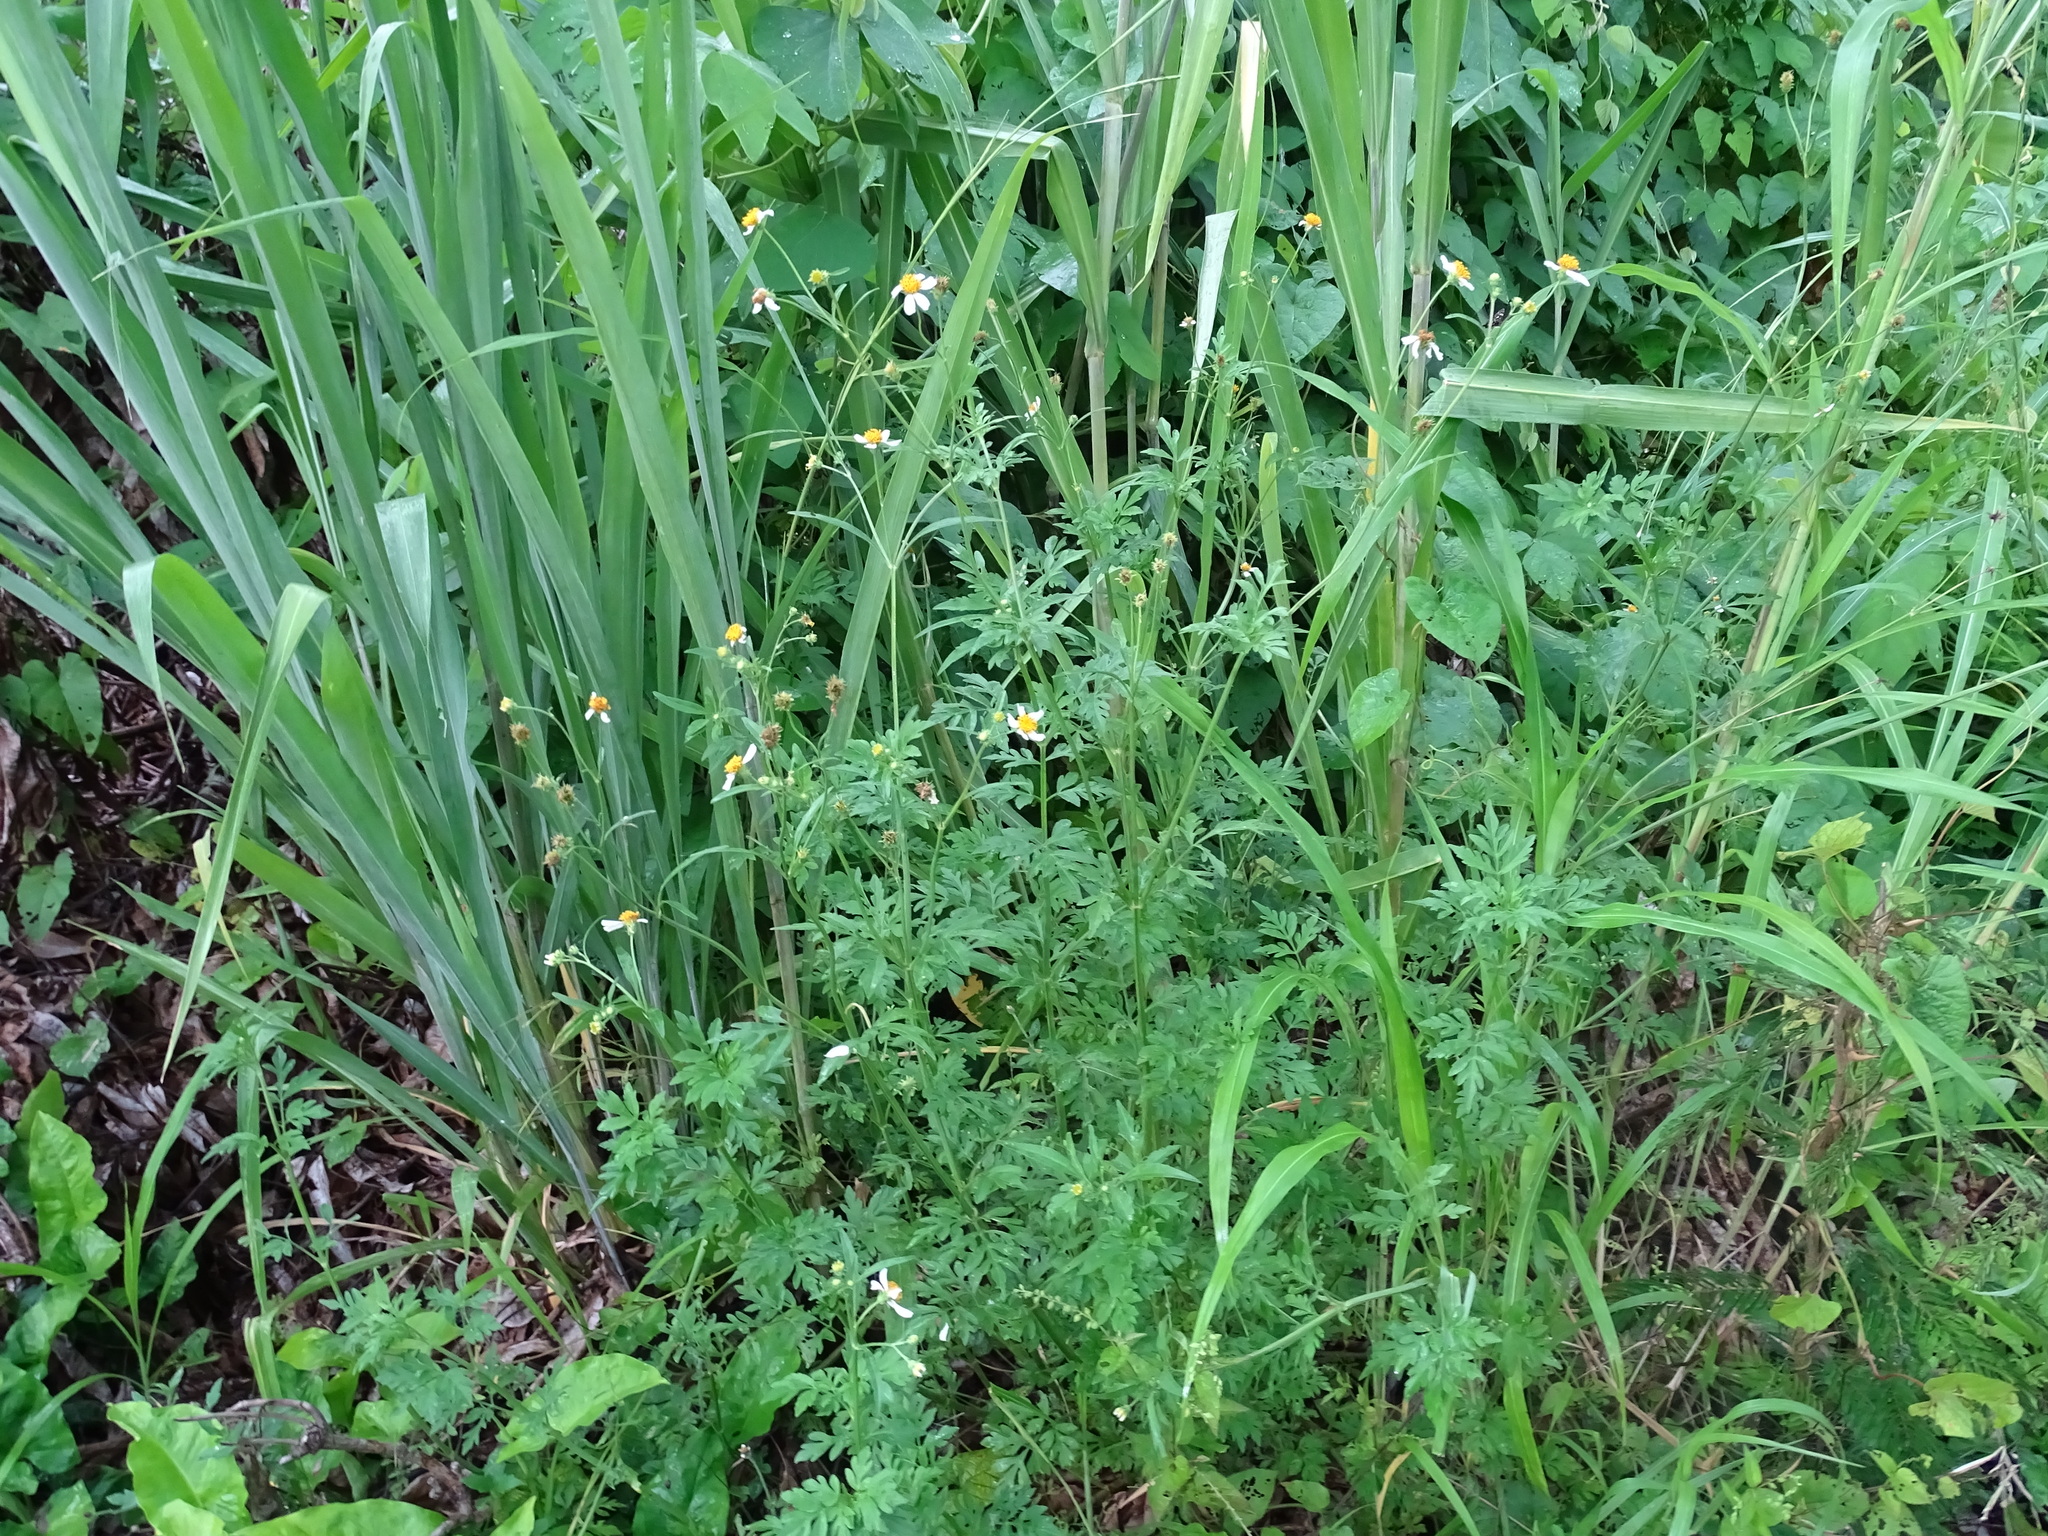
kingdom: Plantae
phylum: Tracheophyta
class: Magnoliopsida
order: Asterales
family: Asteraceae
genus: Bidens
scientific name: Bidens alba
